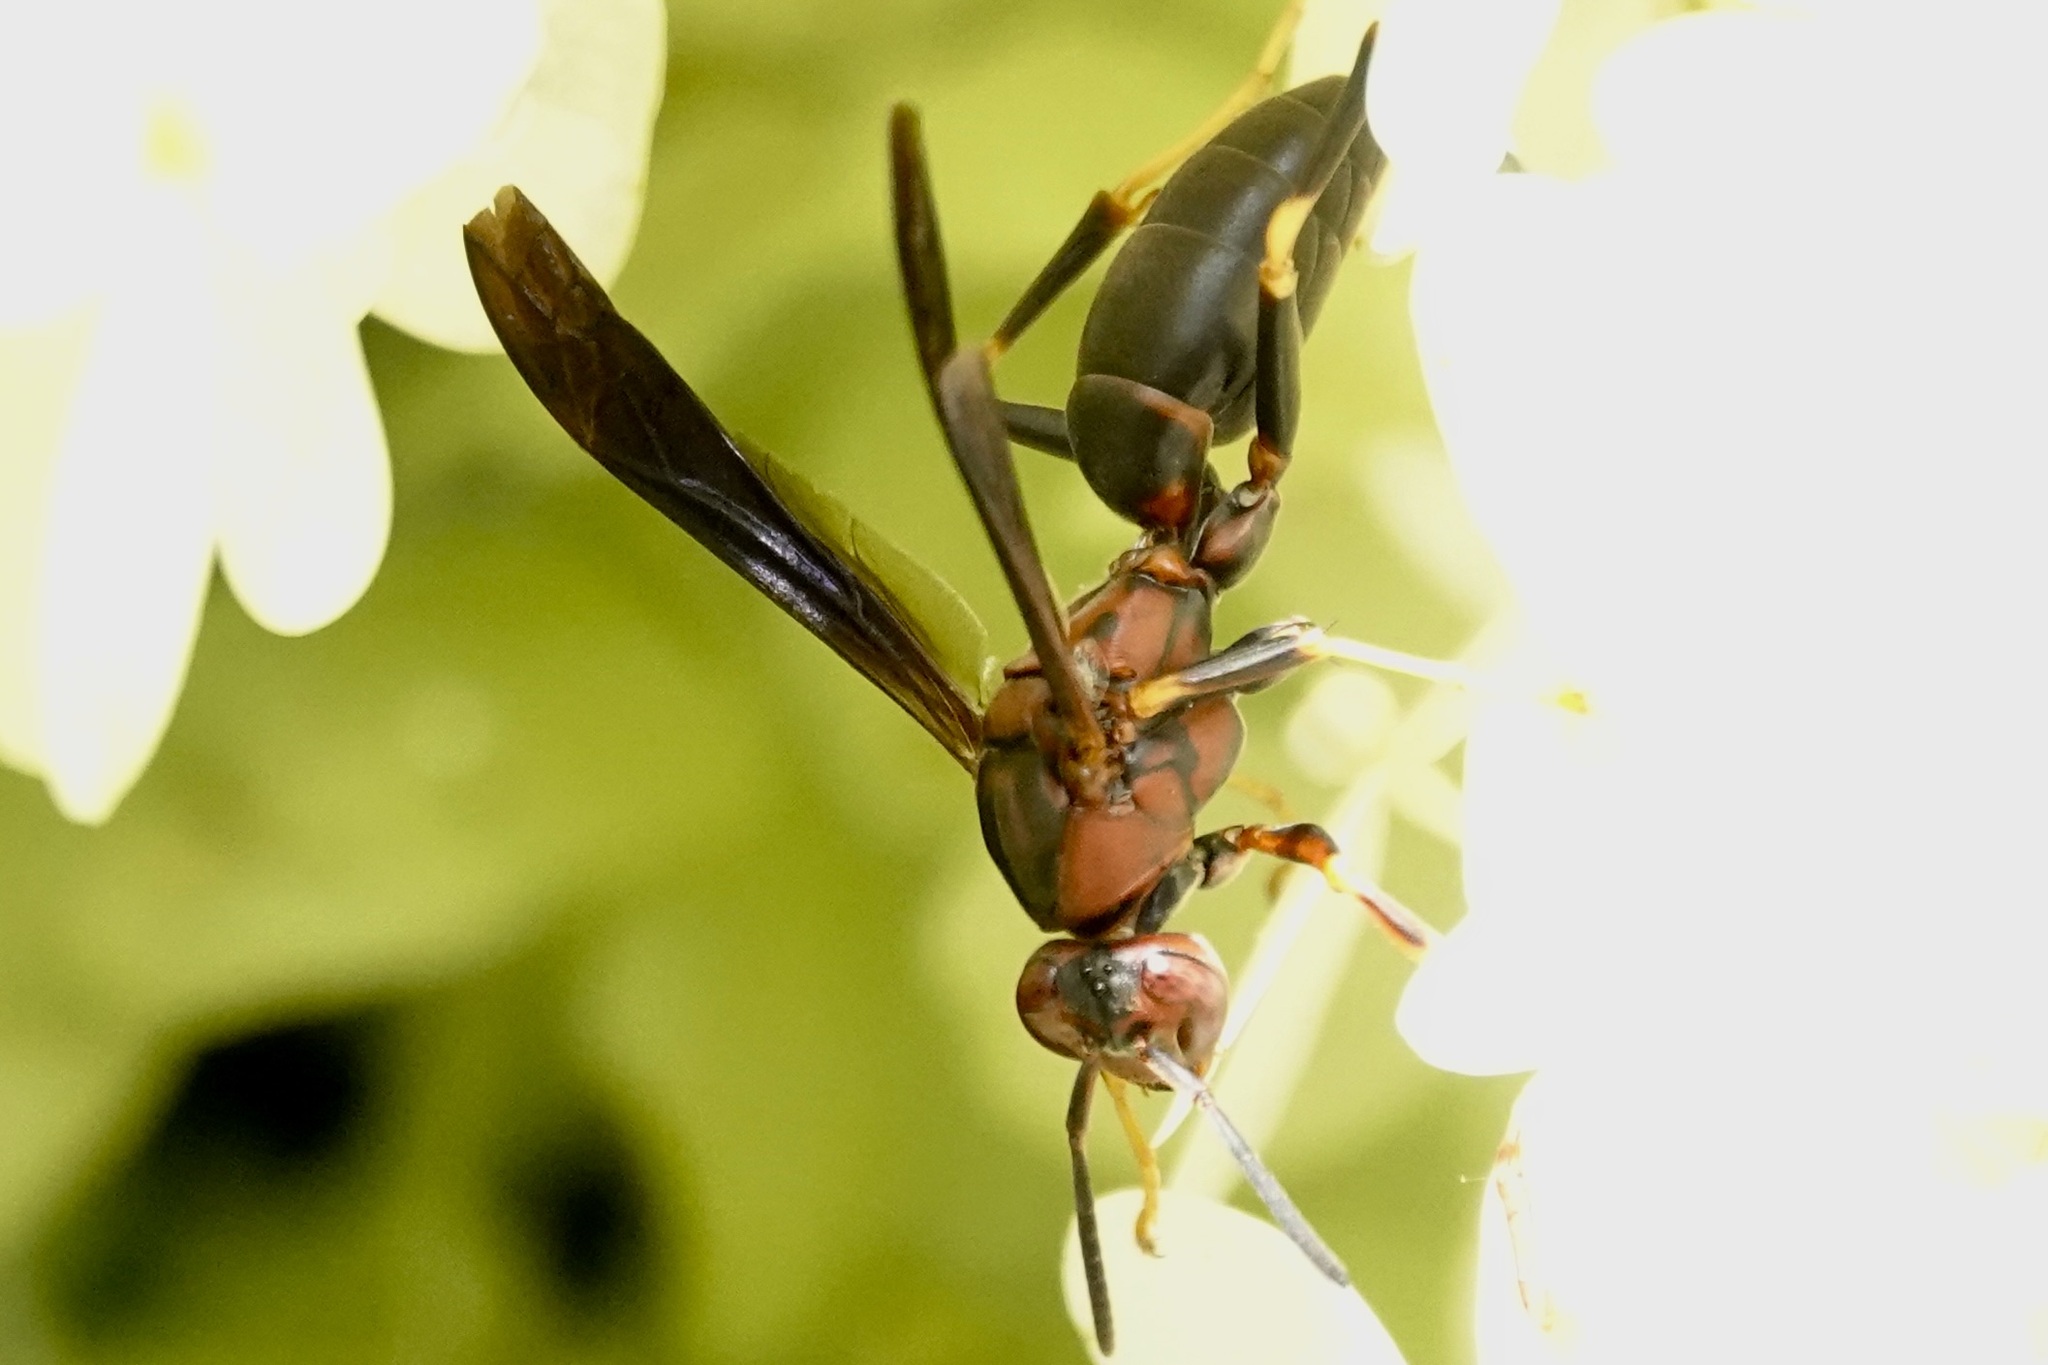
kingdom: Animalia
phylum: Arthropoda
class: Insecta
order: Hymenoptera
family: Eumenidae
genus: Polistes
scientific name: Polistes metricus
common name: Metric paper wasp
